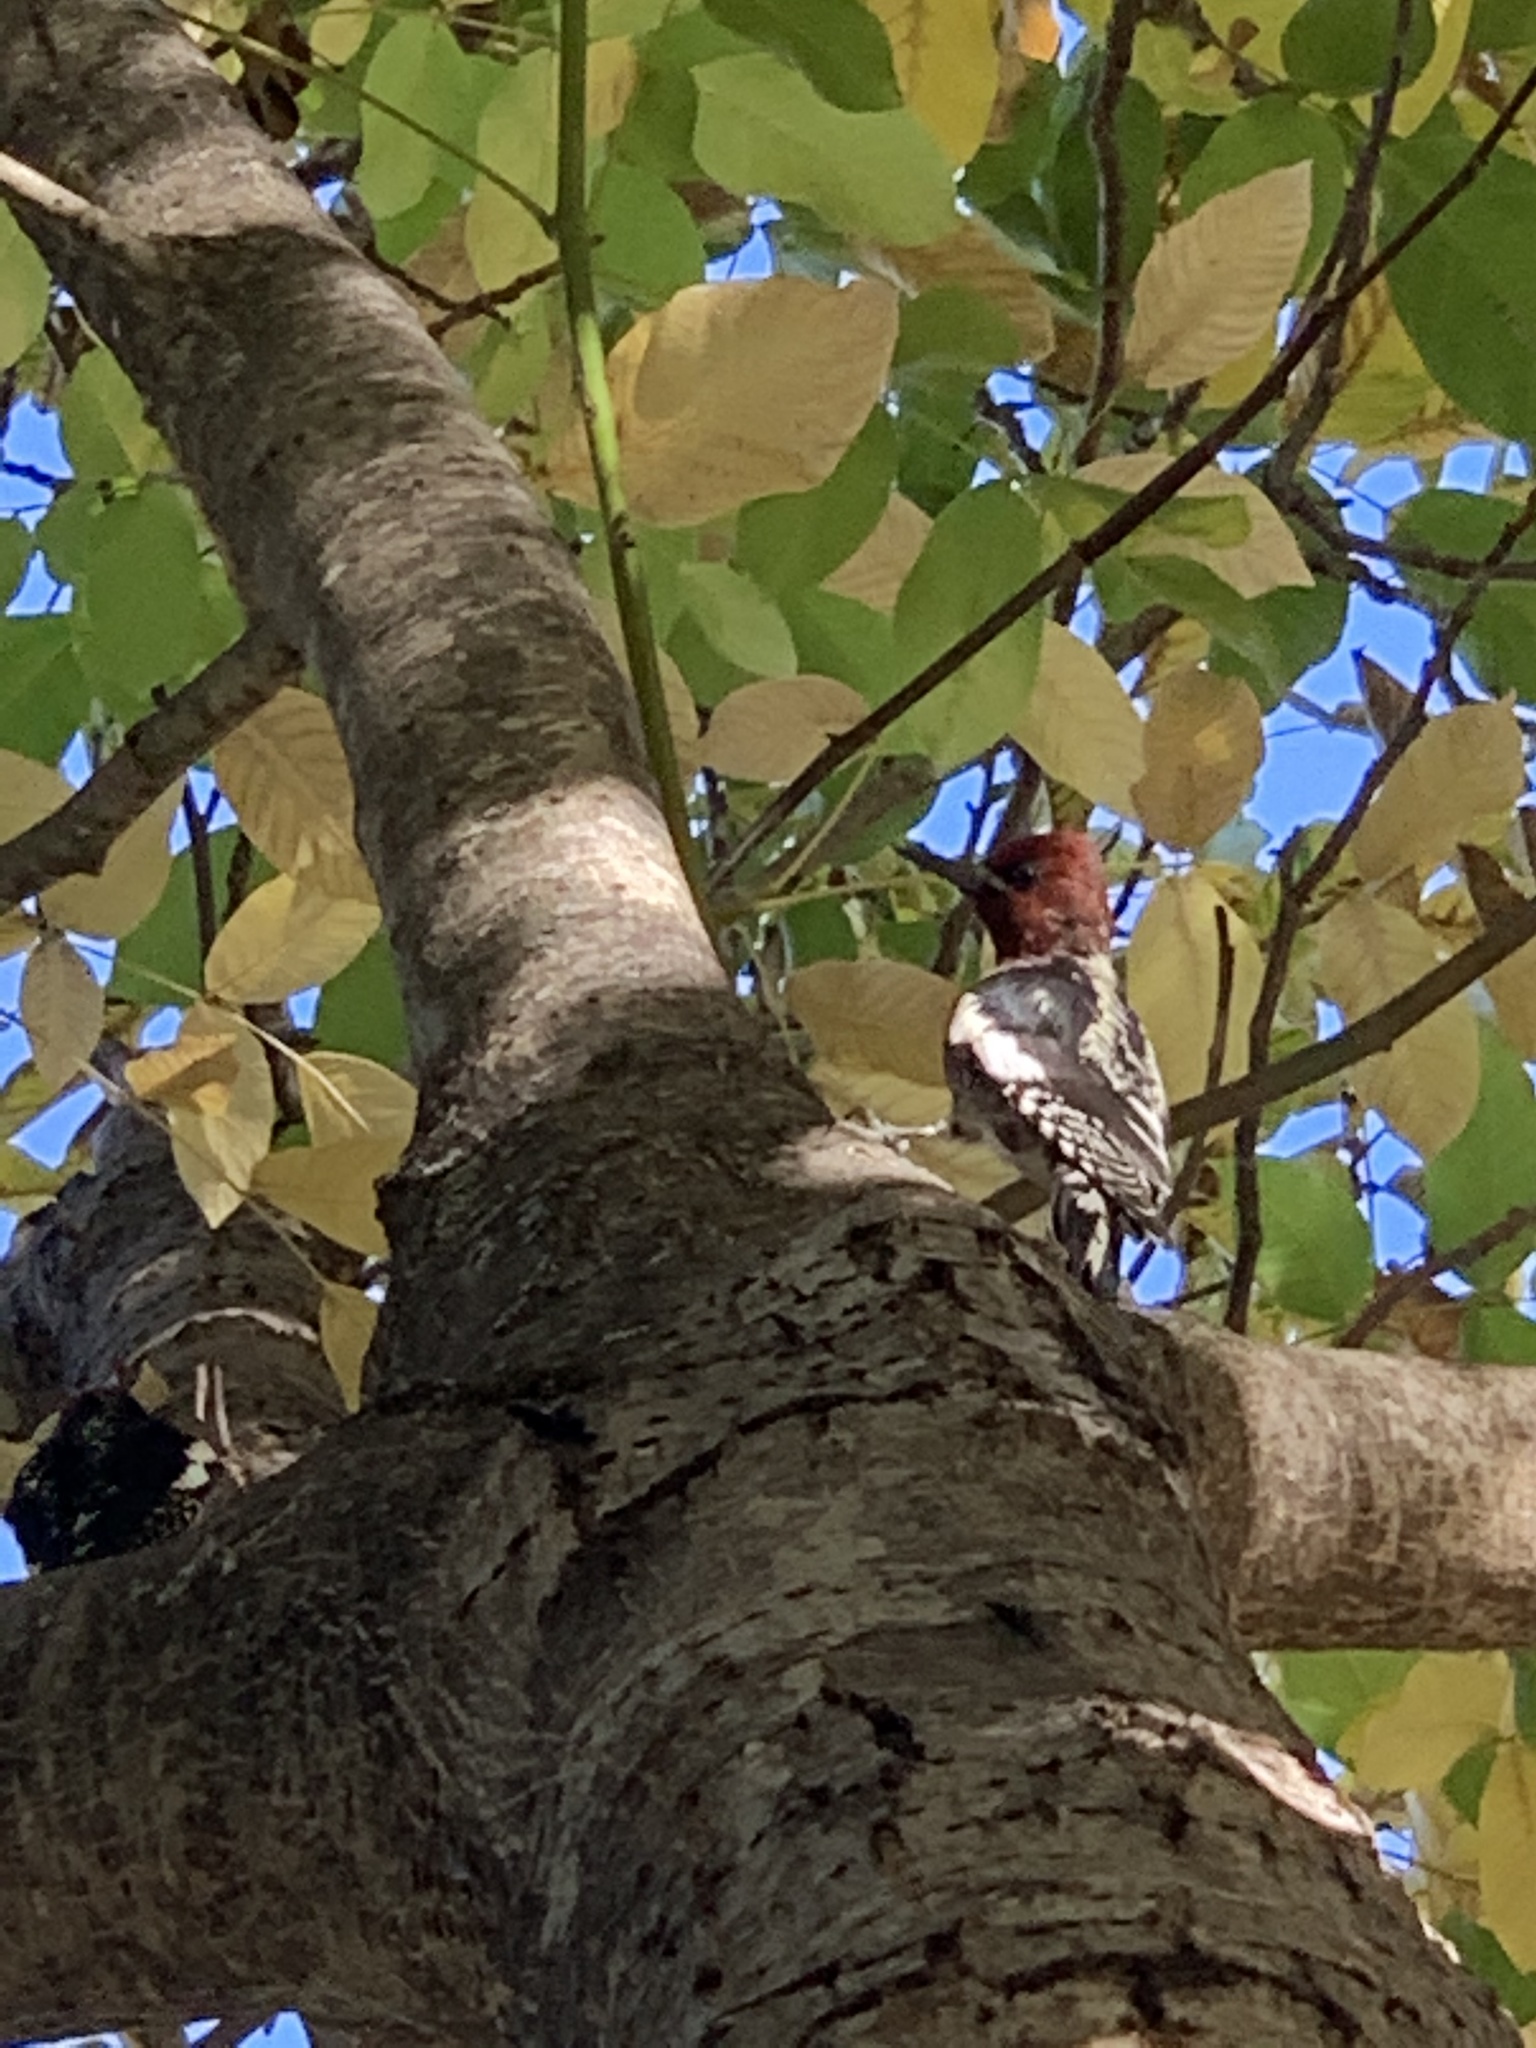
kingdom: Animalia
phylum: Chordata
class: Aves
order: Piciformes
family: Picidae
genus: Sphyrapicus
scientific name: Sphyrapicus ruber
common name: Red-breasted sapsucker
